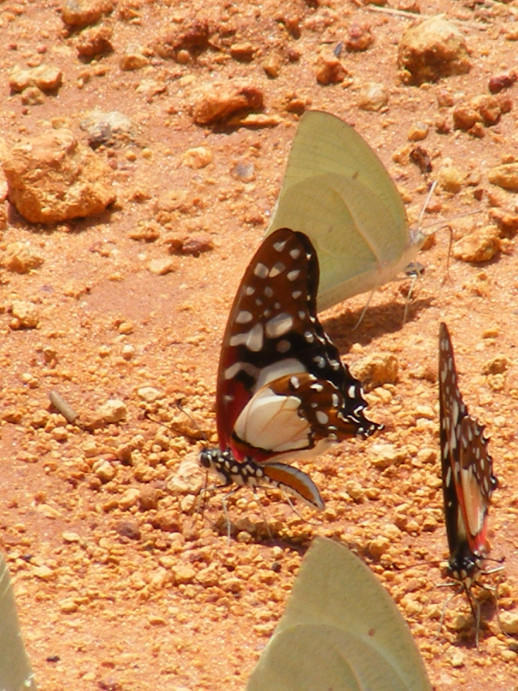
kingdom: Animalia
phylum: Arthropoda
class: Insecta
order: Lepidoptera
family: Papilionidae
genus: Graphium
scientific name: Graphium angolanus
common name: Angola white-lady swordtail
